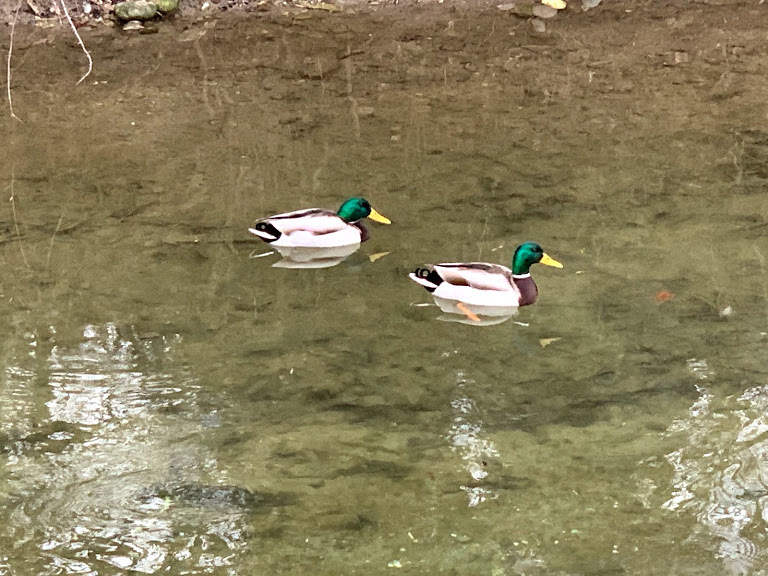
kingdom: Animalia
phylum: Chordata
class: Aves
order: Anseriformes
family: Anatidae
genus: Anas
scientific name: Anas platyrhynchos
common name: Mallard
